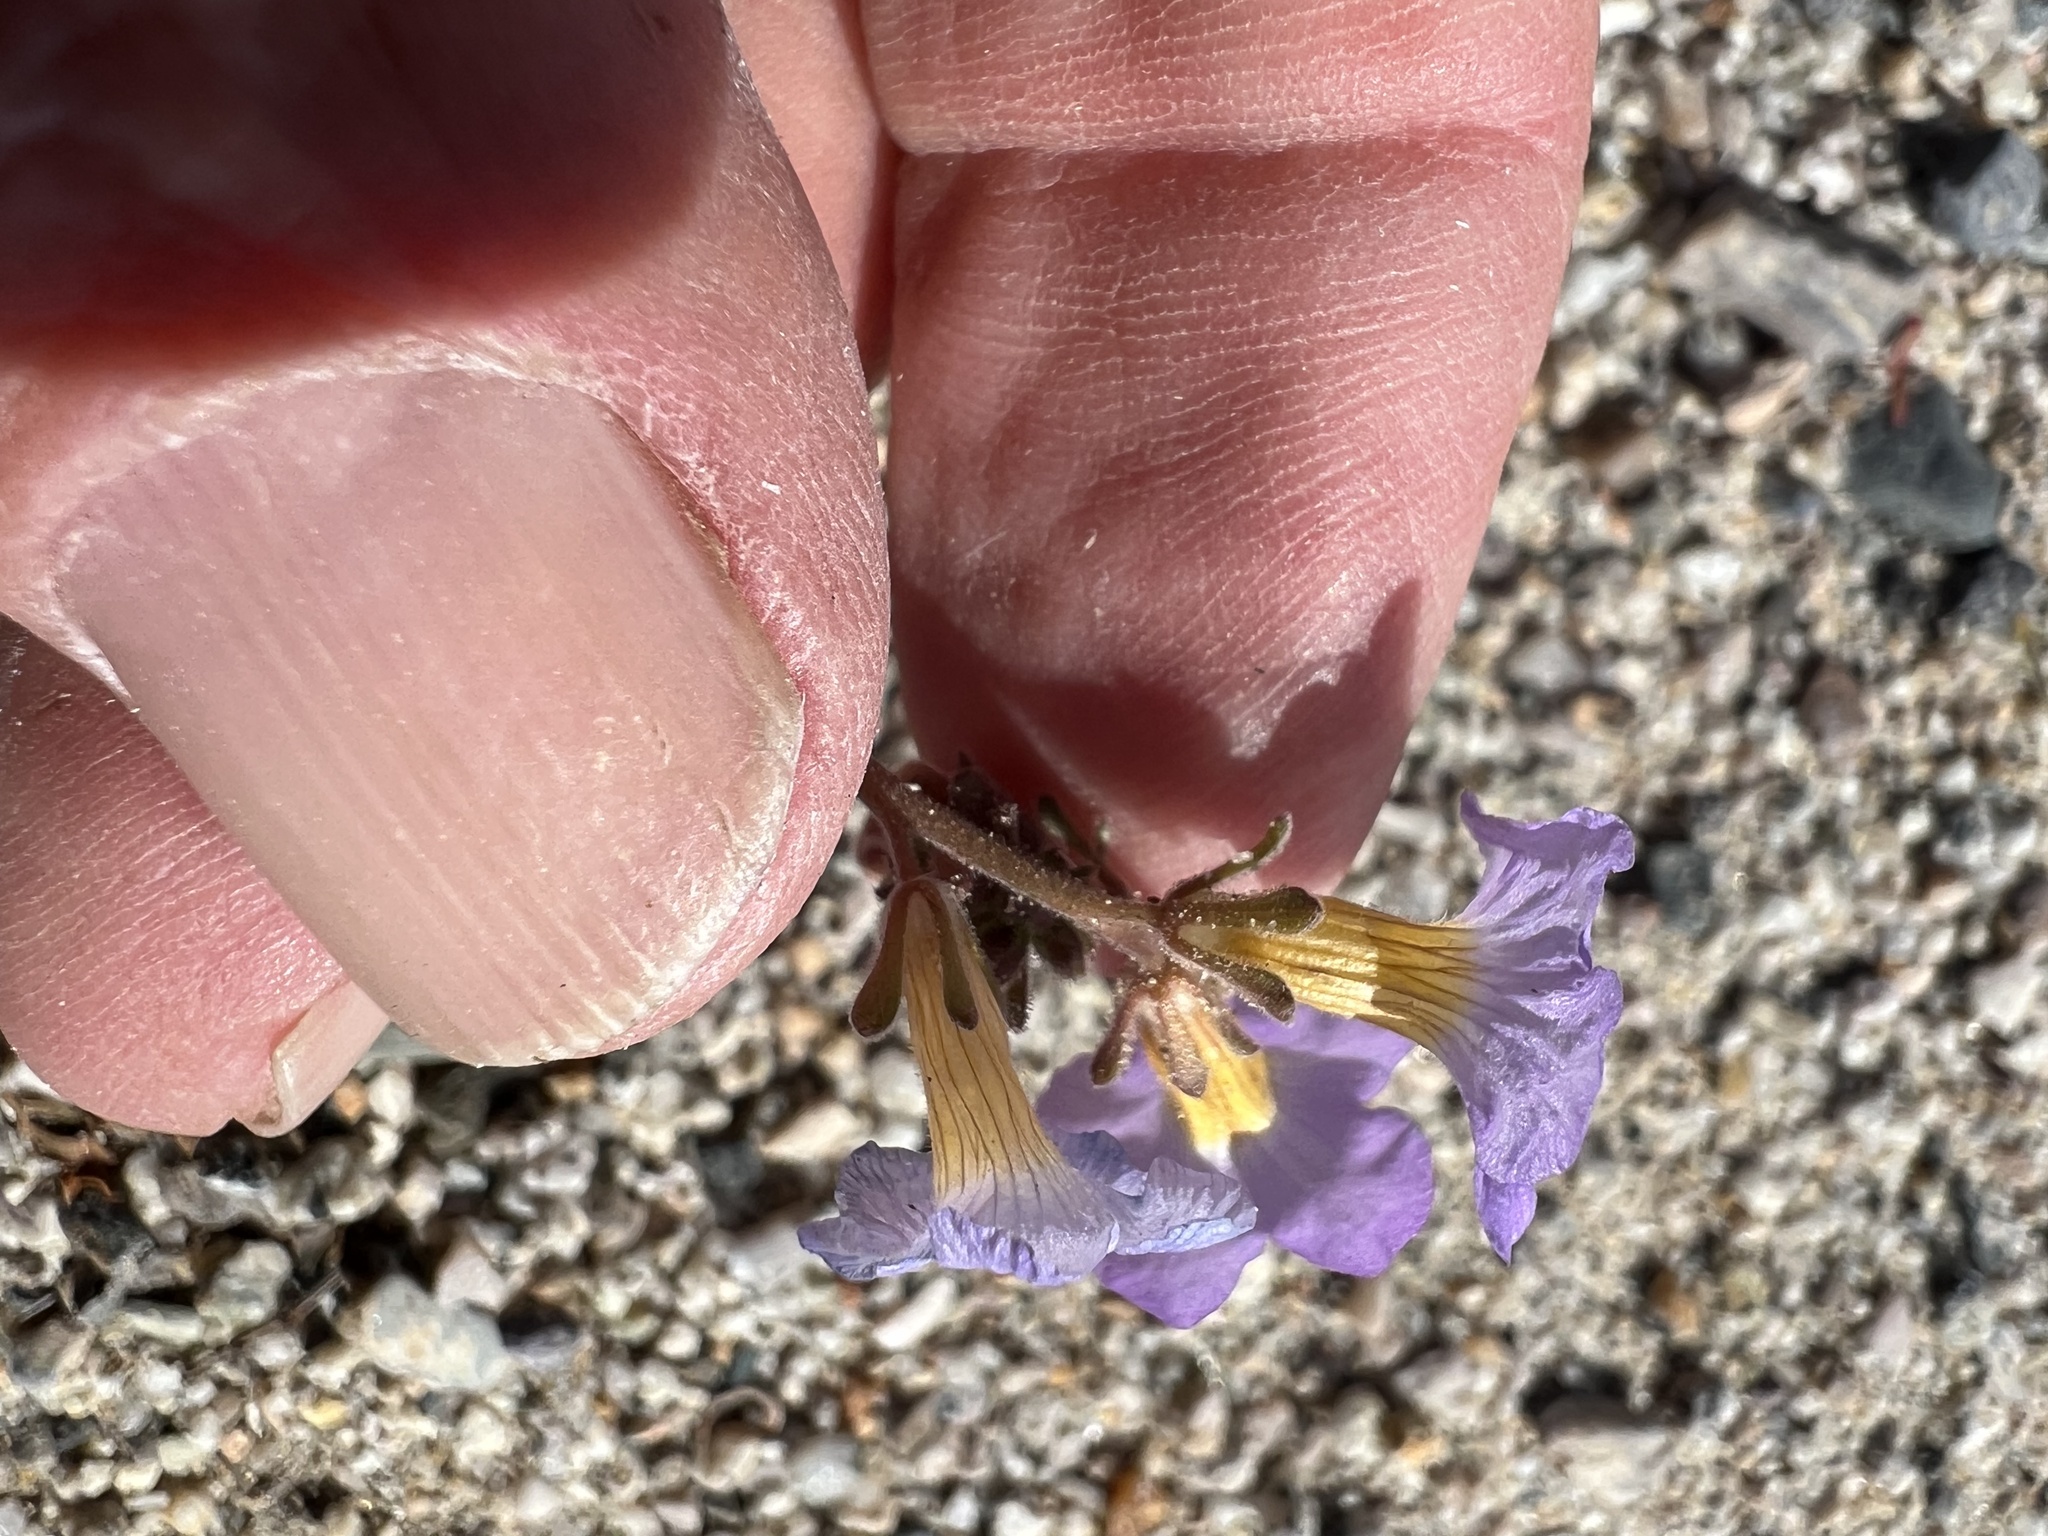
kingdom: Plantae
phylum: Tracheophyta
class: Magnoliopsida
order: Boraginales
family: Hydrophyllaceae
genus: Phacelia
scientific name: Phacelia fremontii
